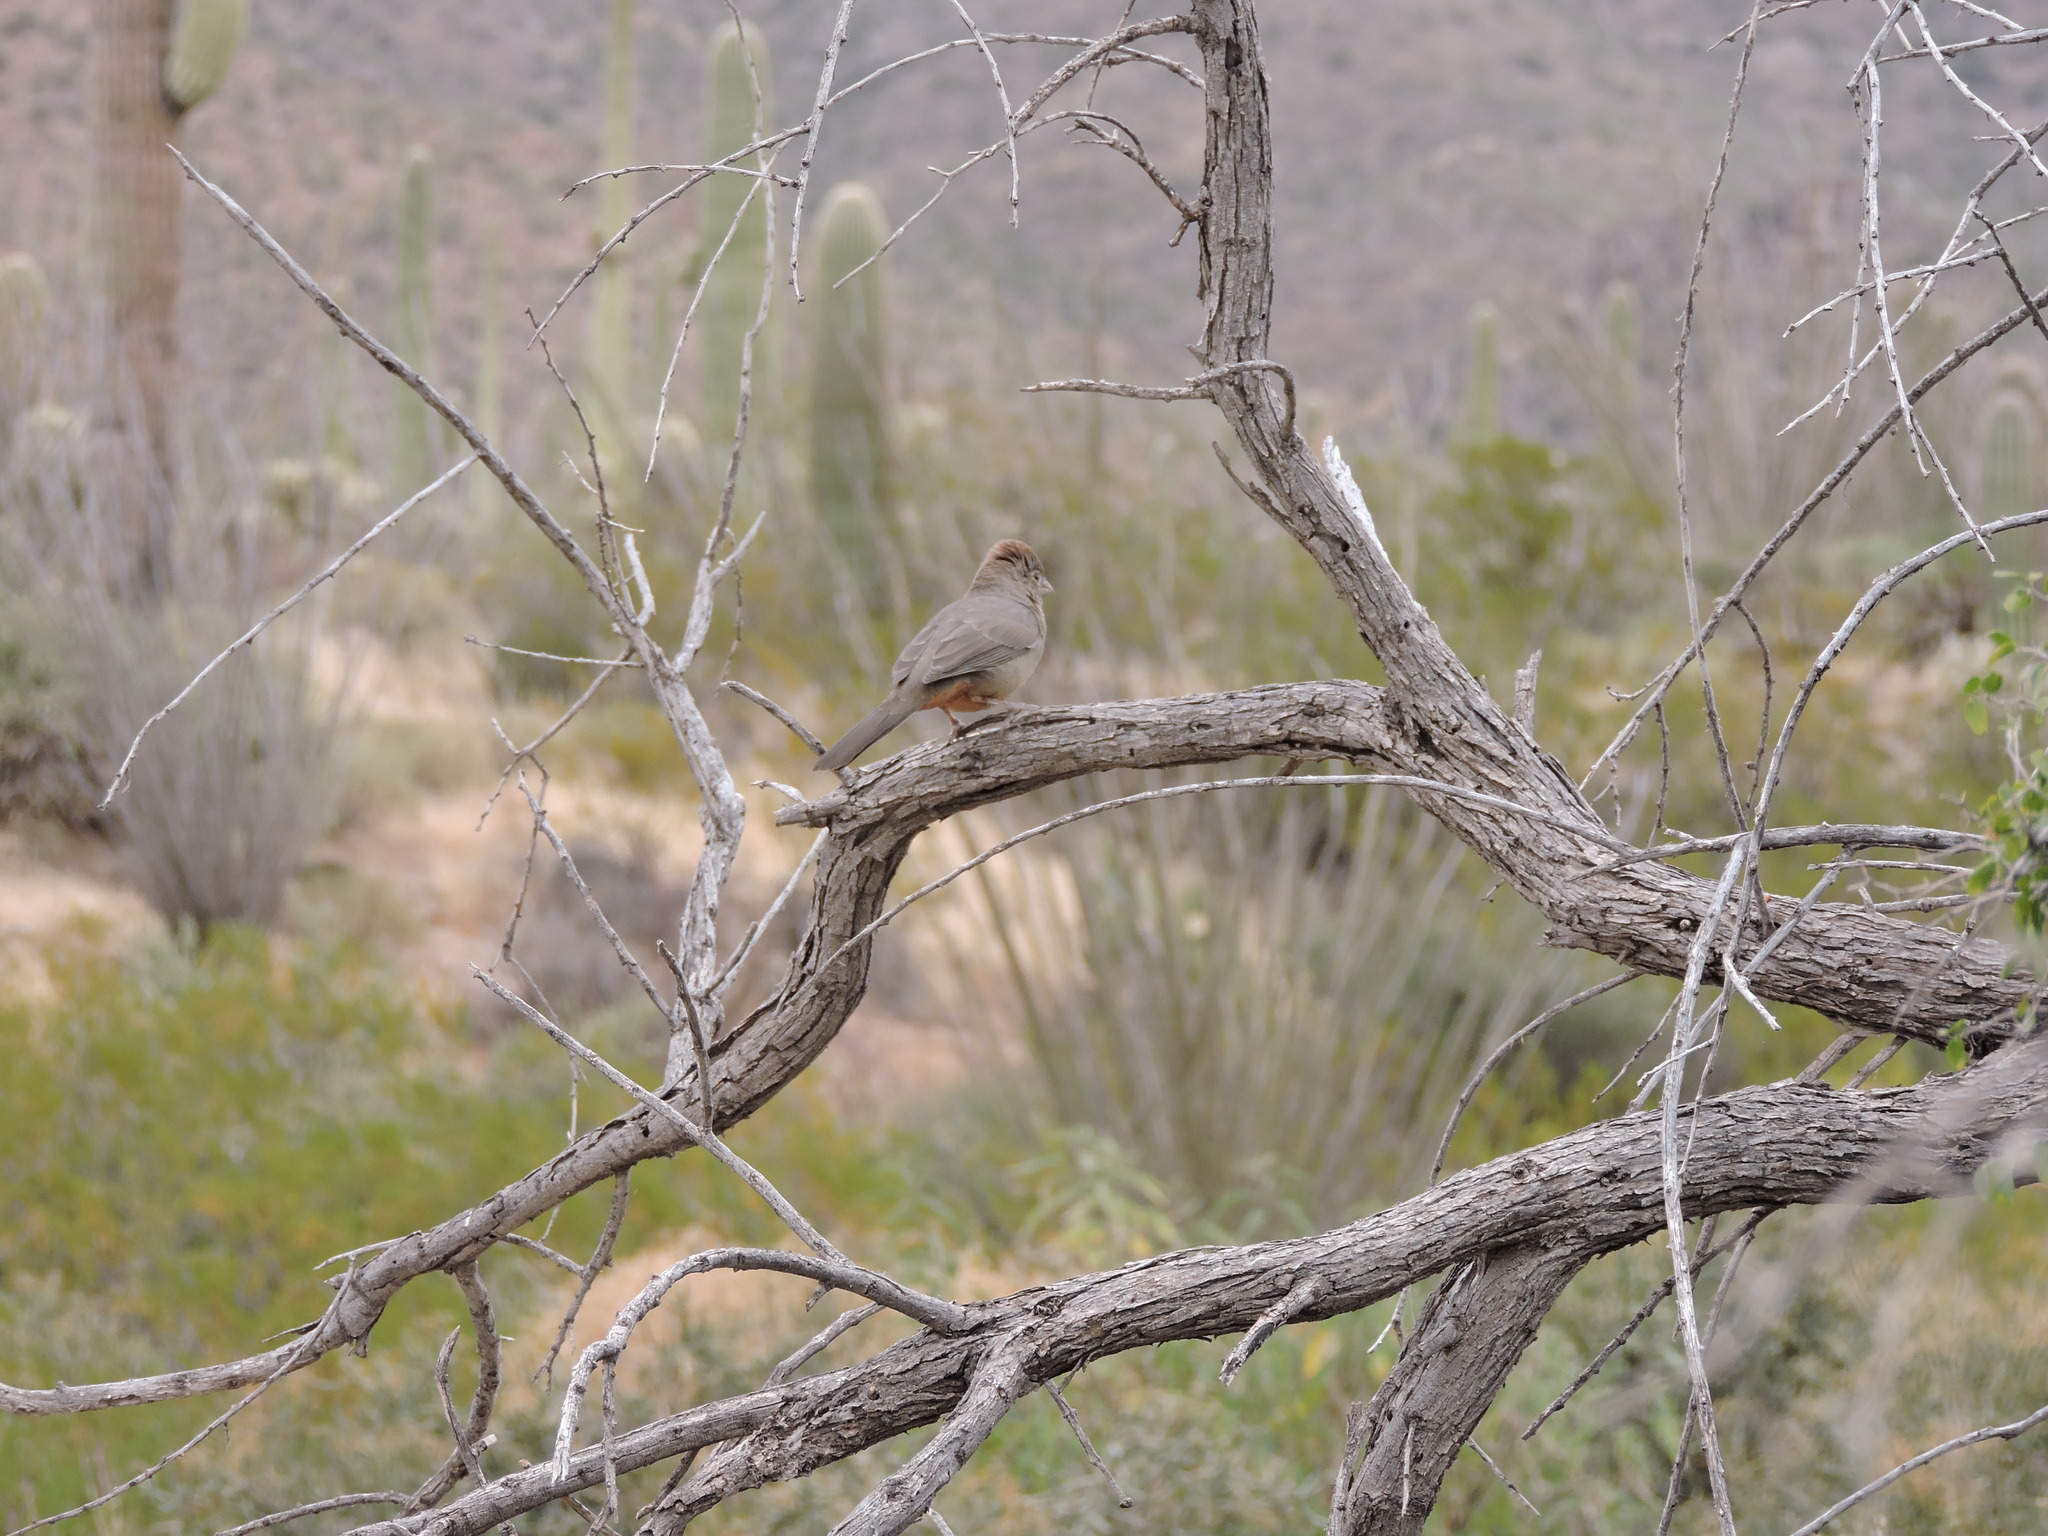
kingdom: Animalia
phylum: Chordata
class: Aves
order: Passeriformes
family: Passerellidae
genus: Melozone
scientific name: Melozone fusca
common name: Canyon towhee
